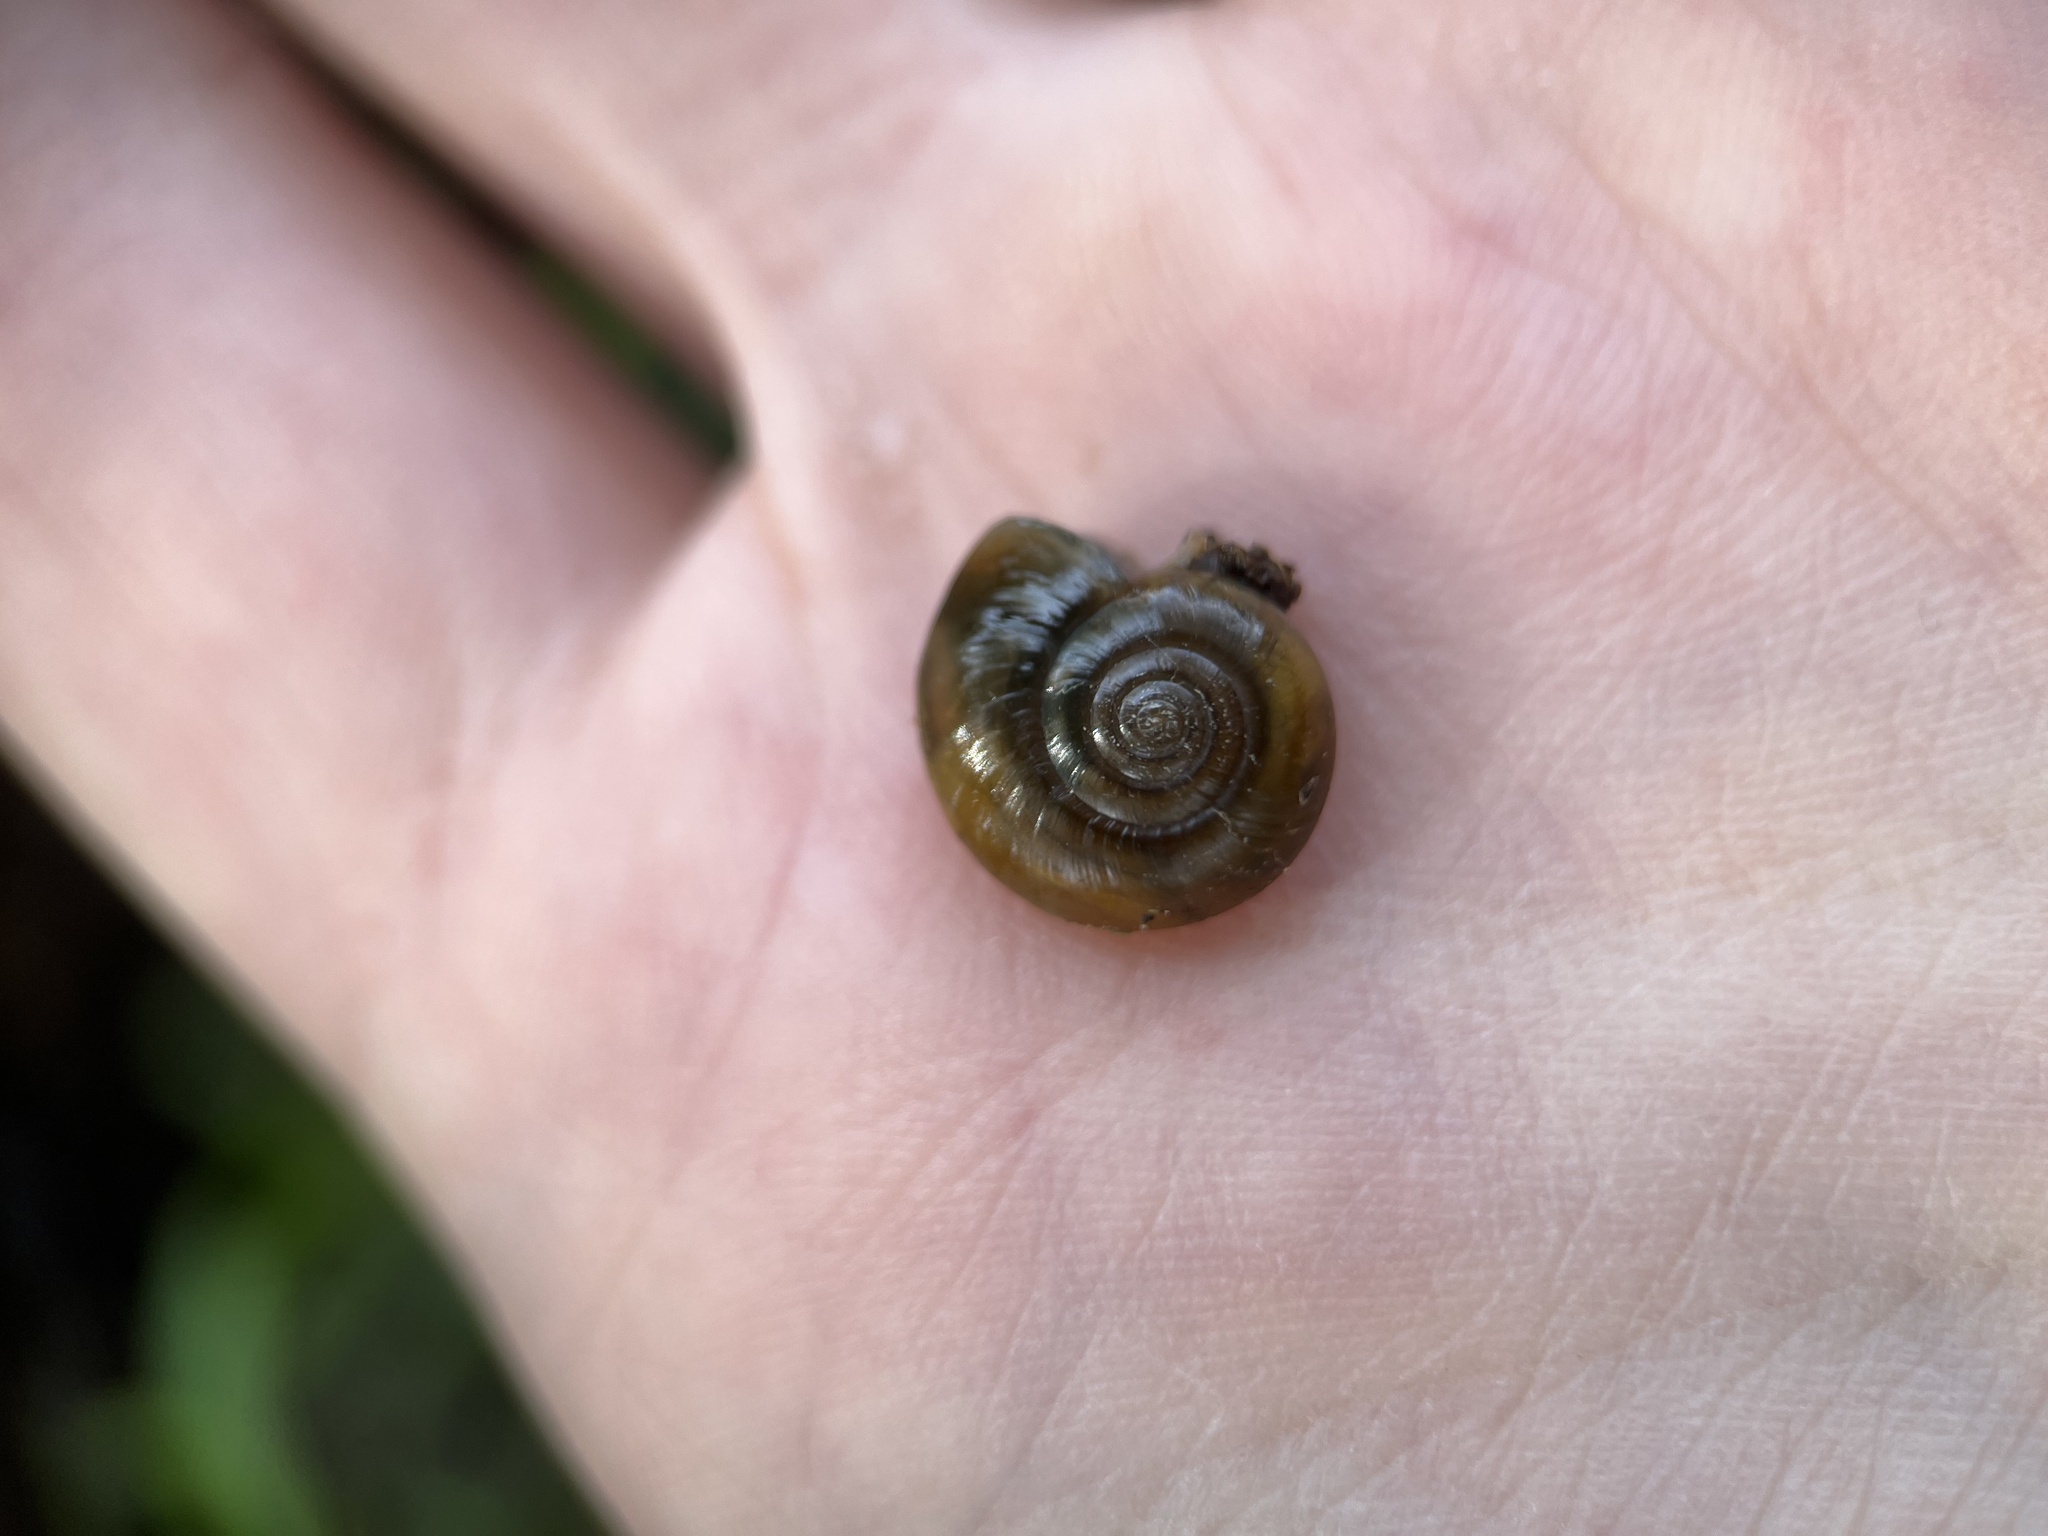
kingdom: Animalia
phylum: Mollusca
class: Gastropoda
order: Stylommatophora
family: Oxychilidae
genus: Oxychilus
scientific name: Oxychilus draparnaudi
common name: Draparnaud's glass snail
